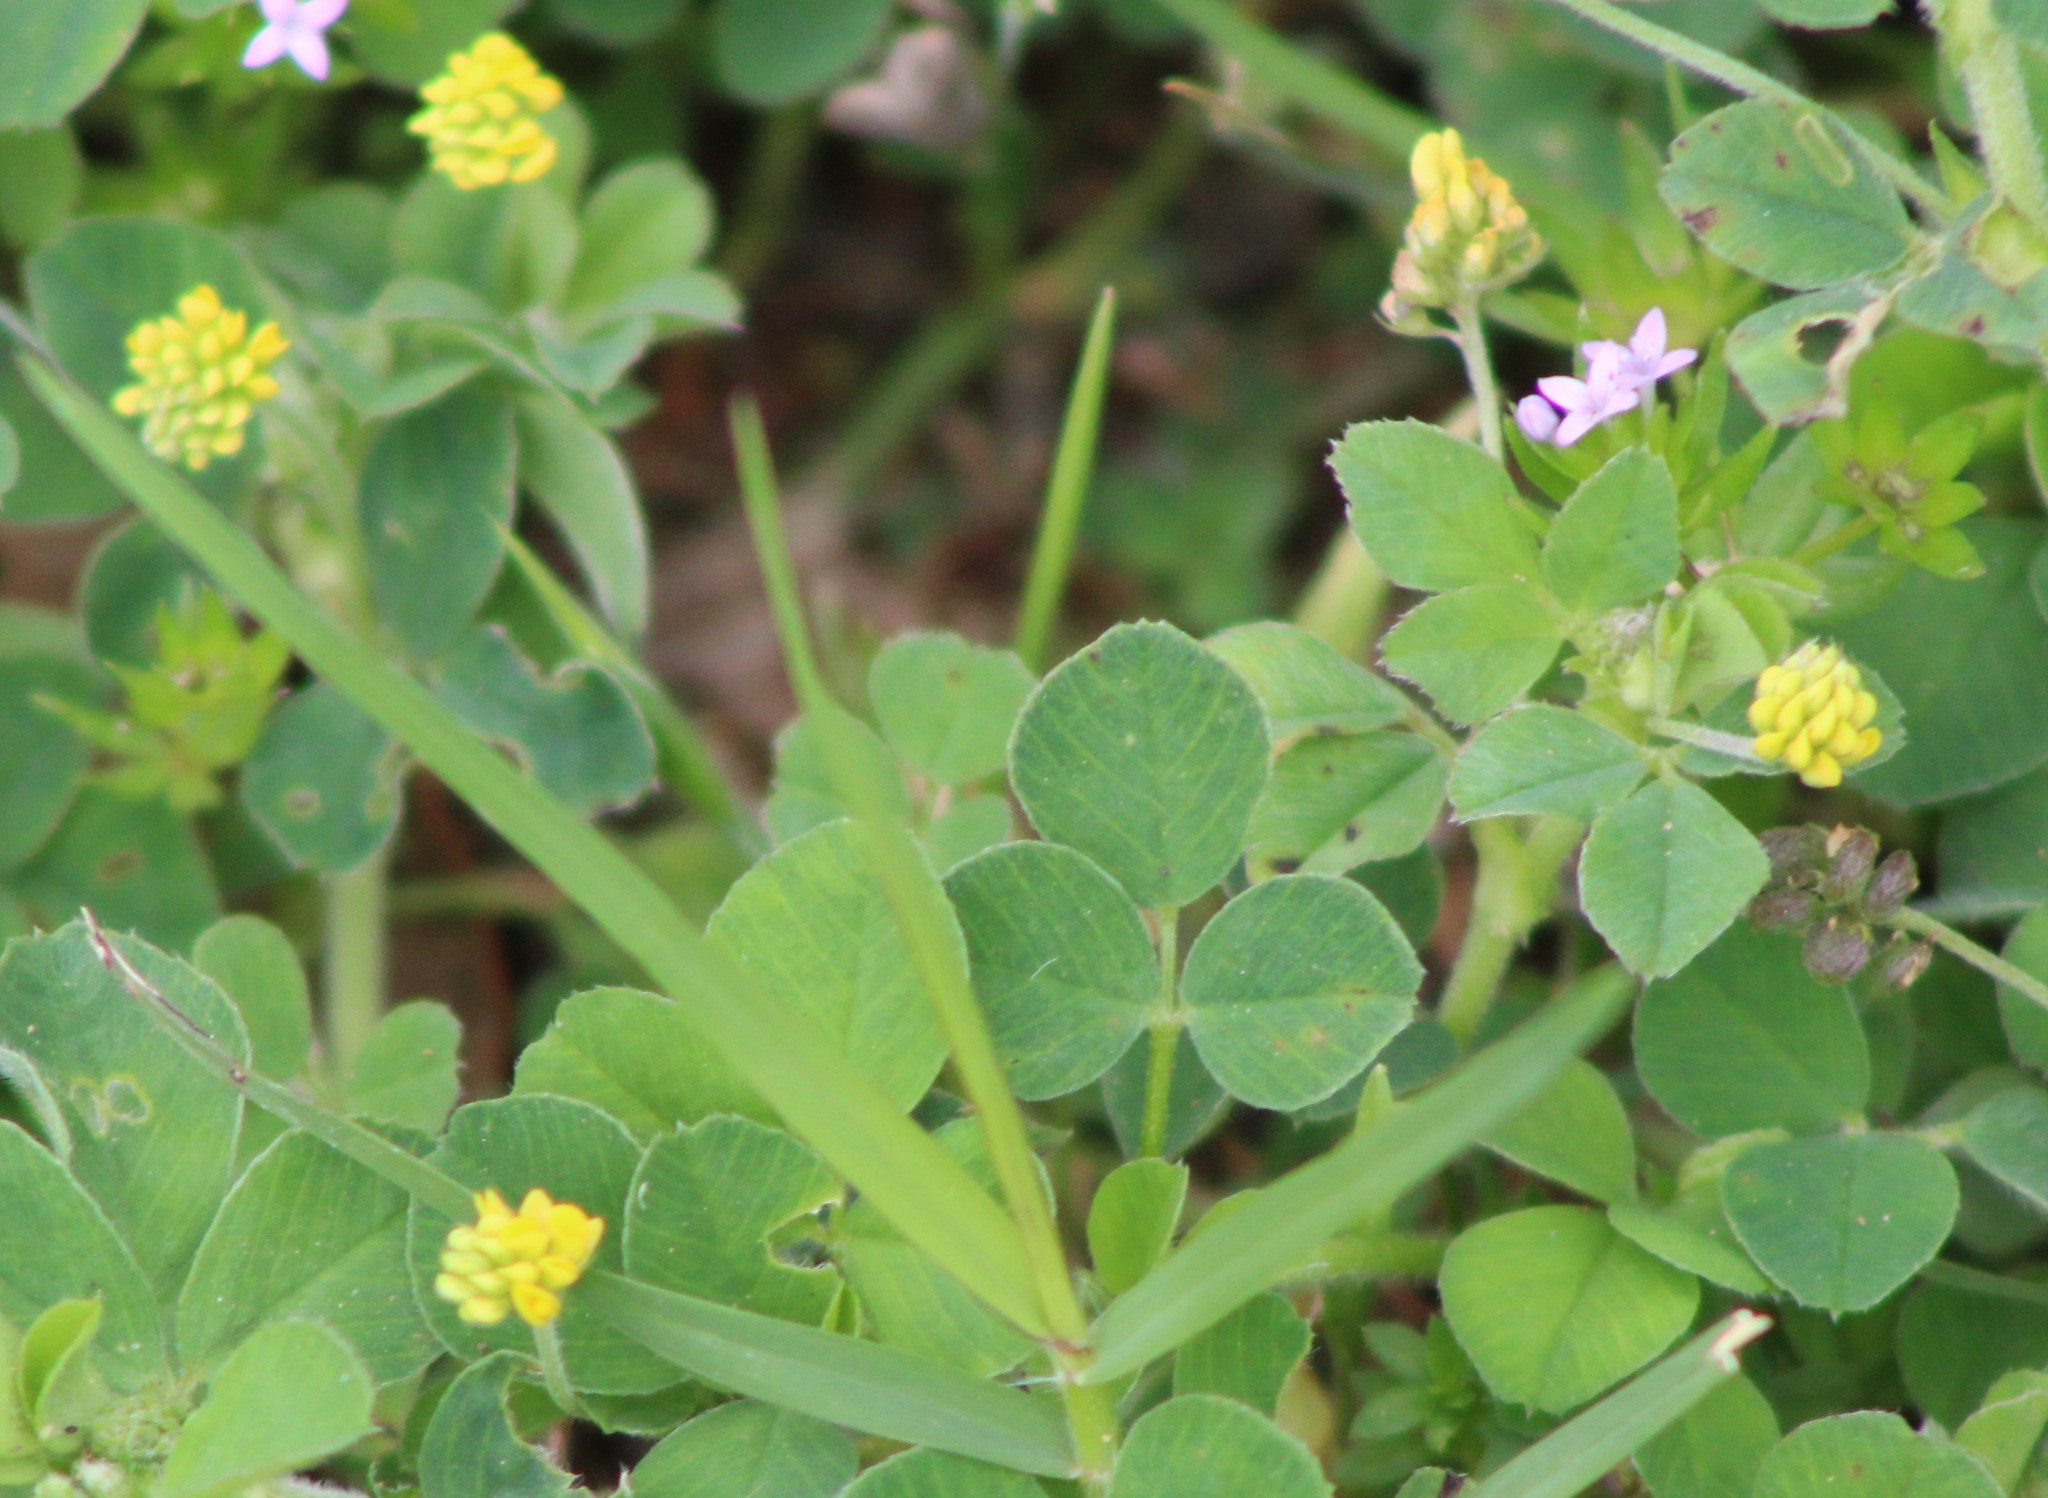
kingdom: Plantae
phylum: Tracheophyta
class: Magnoliopsida
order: Fabales
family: Fabaceae
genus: Medicago
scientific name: Medicago lupulina
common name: Black medick
